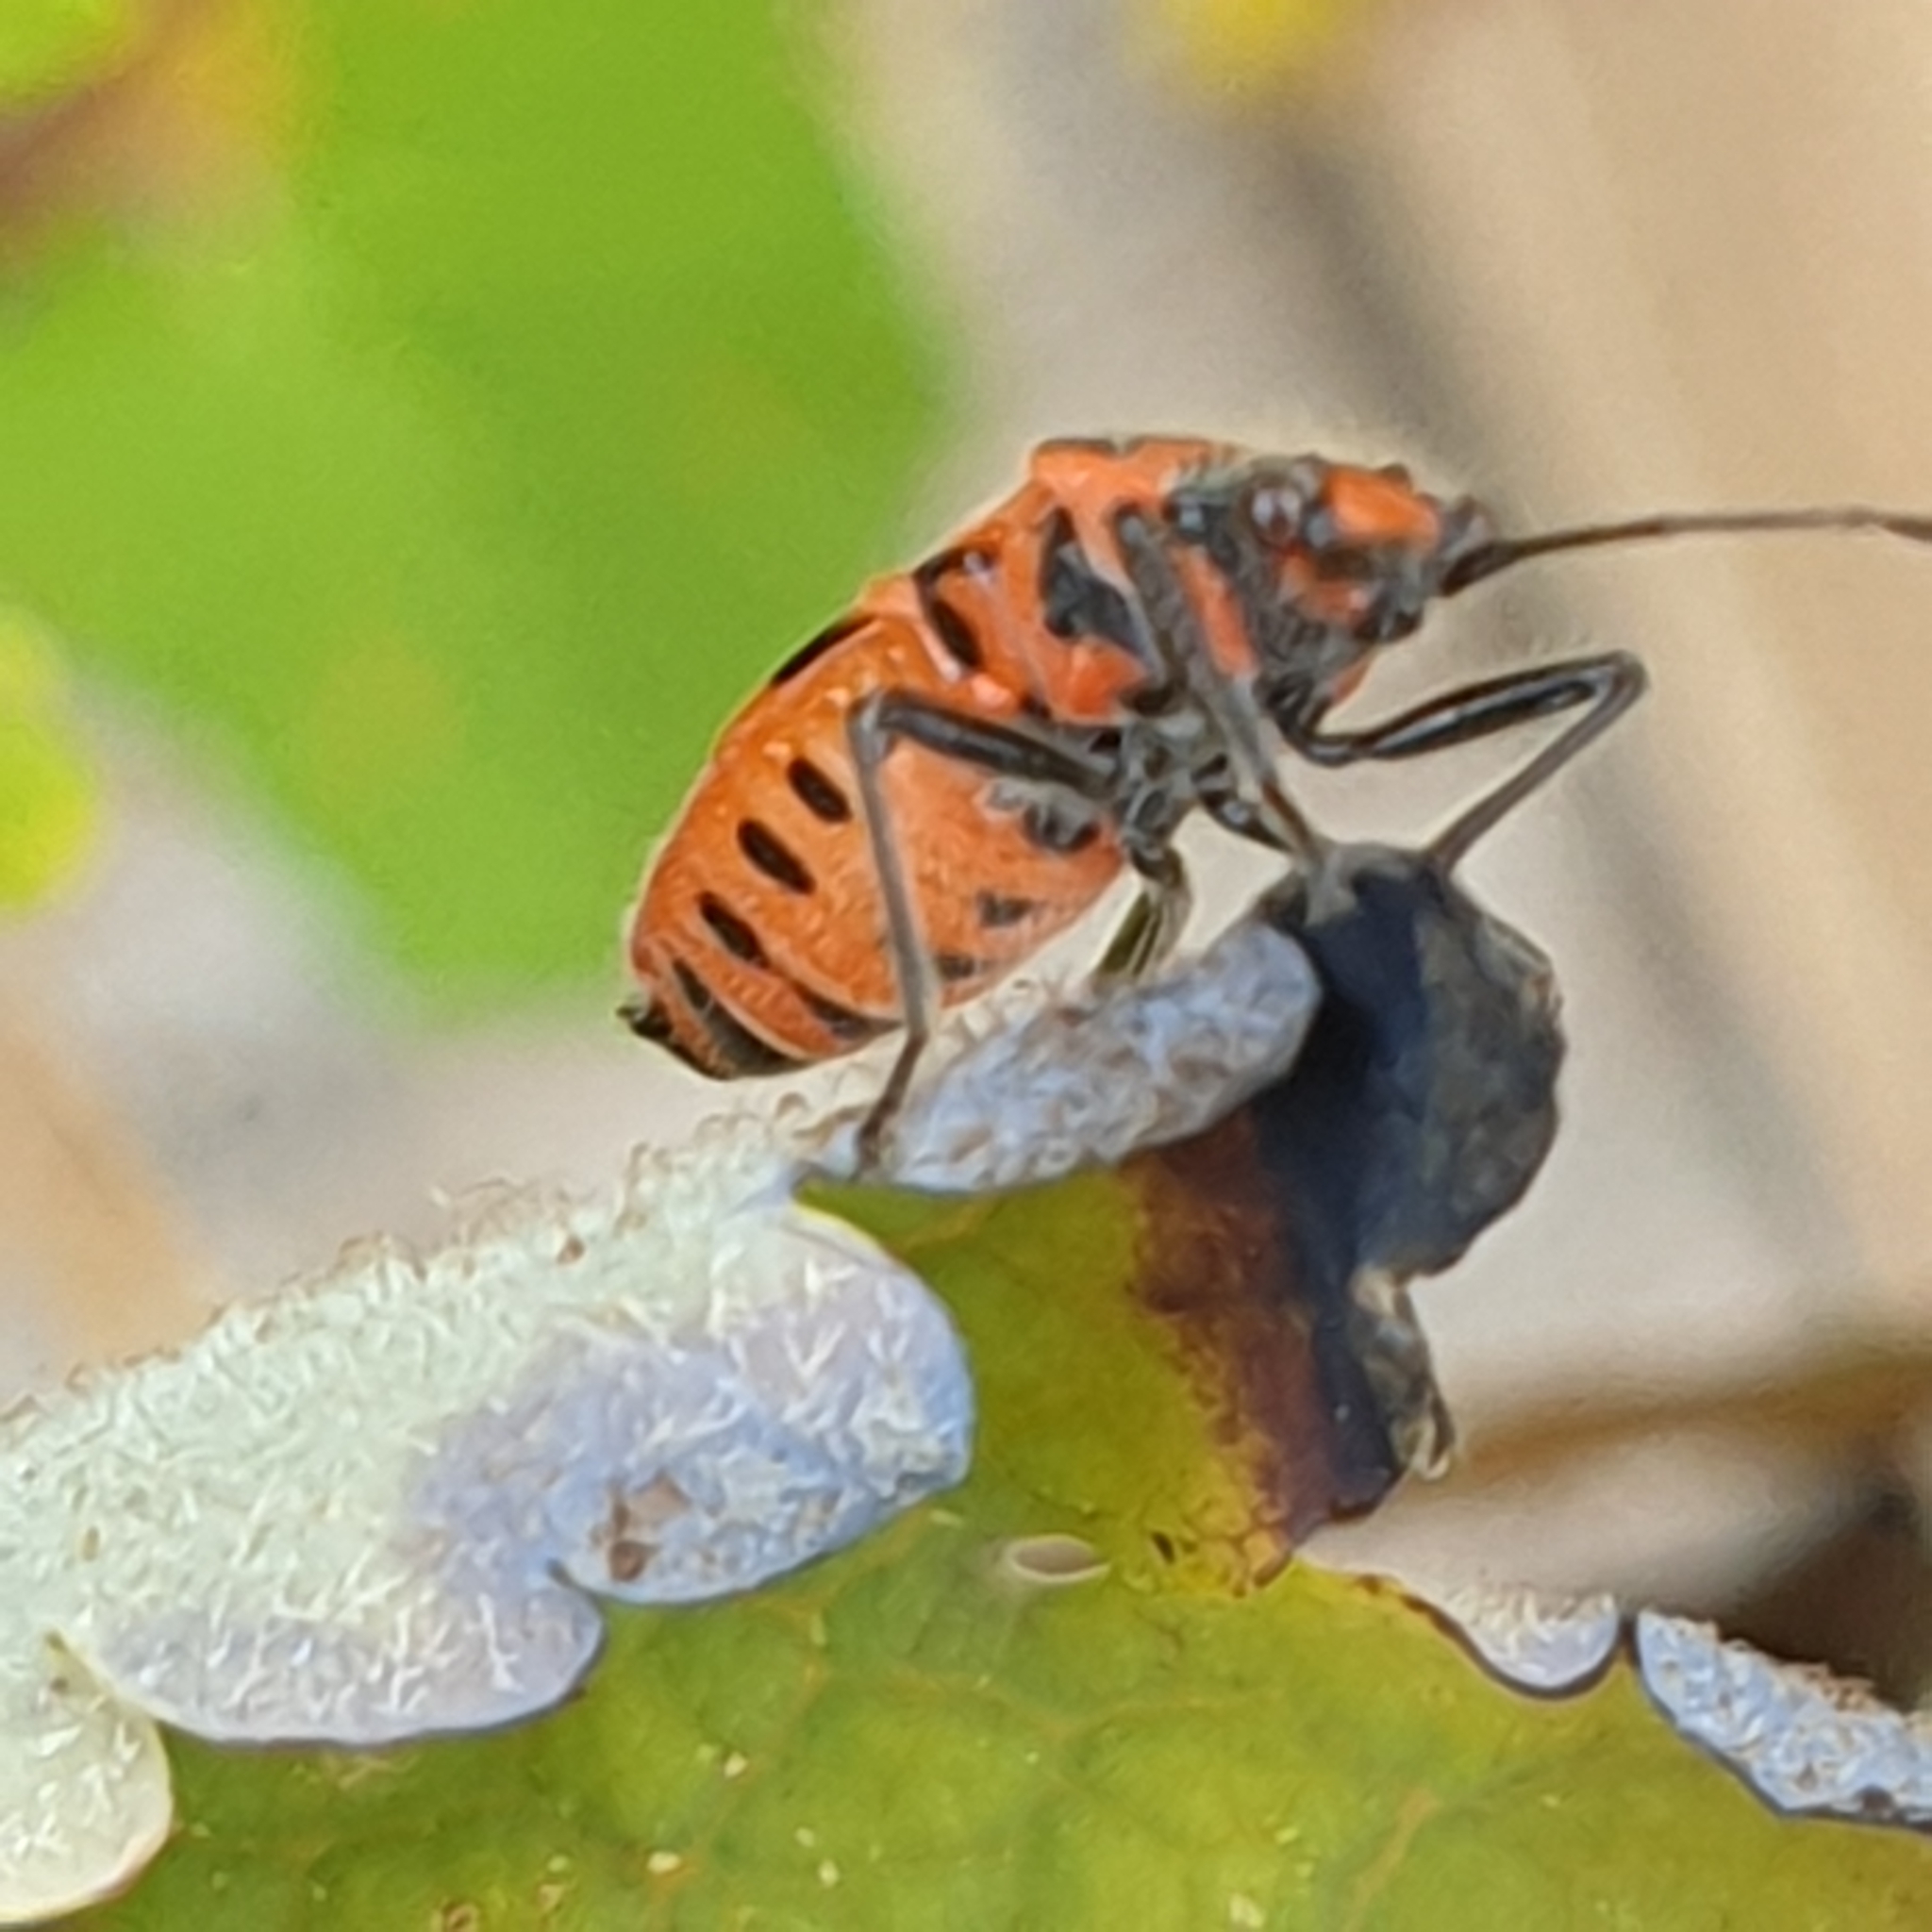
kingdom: Animalia
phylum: Arthropoda
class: Insecta
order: Hemiptera
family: Rhopalidae
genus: Corizus
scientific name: Corizus hyoscyami
